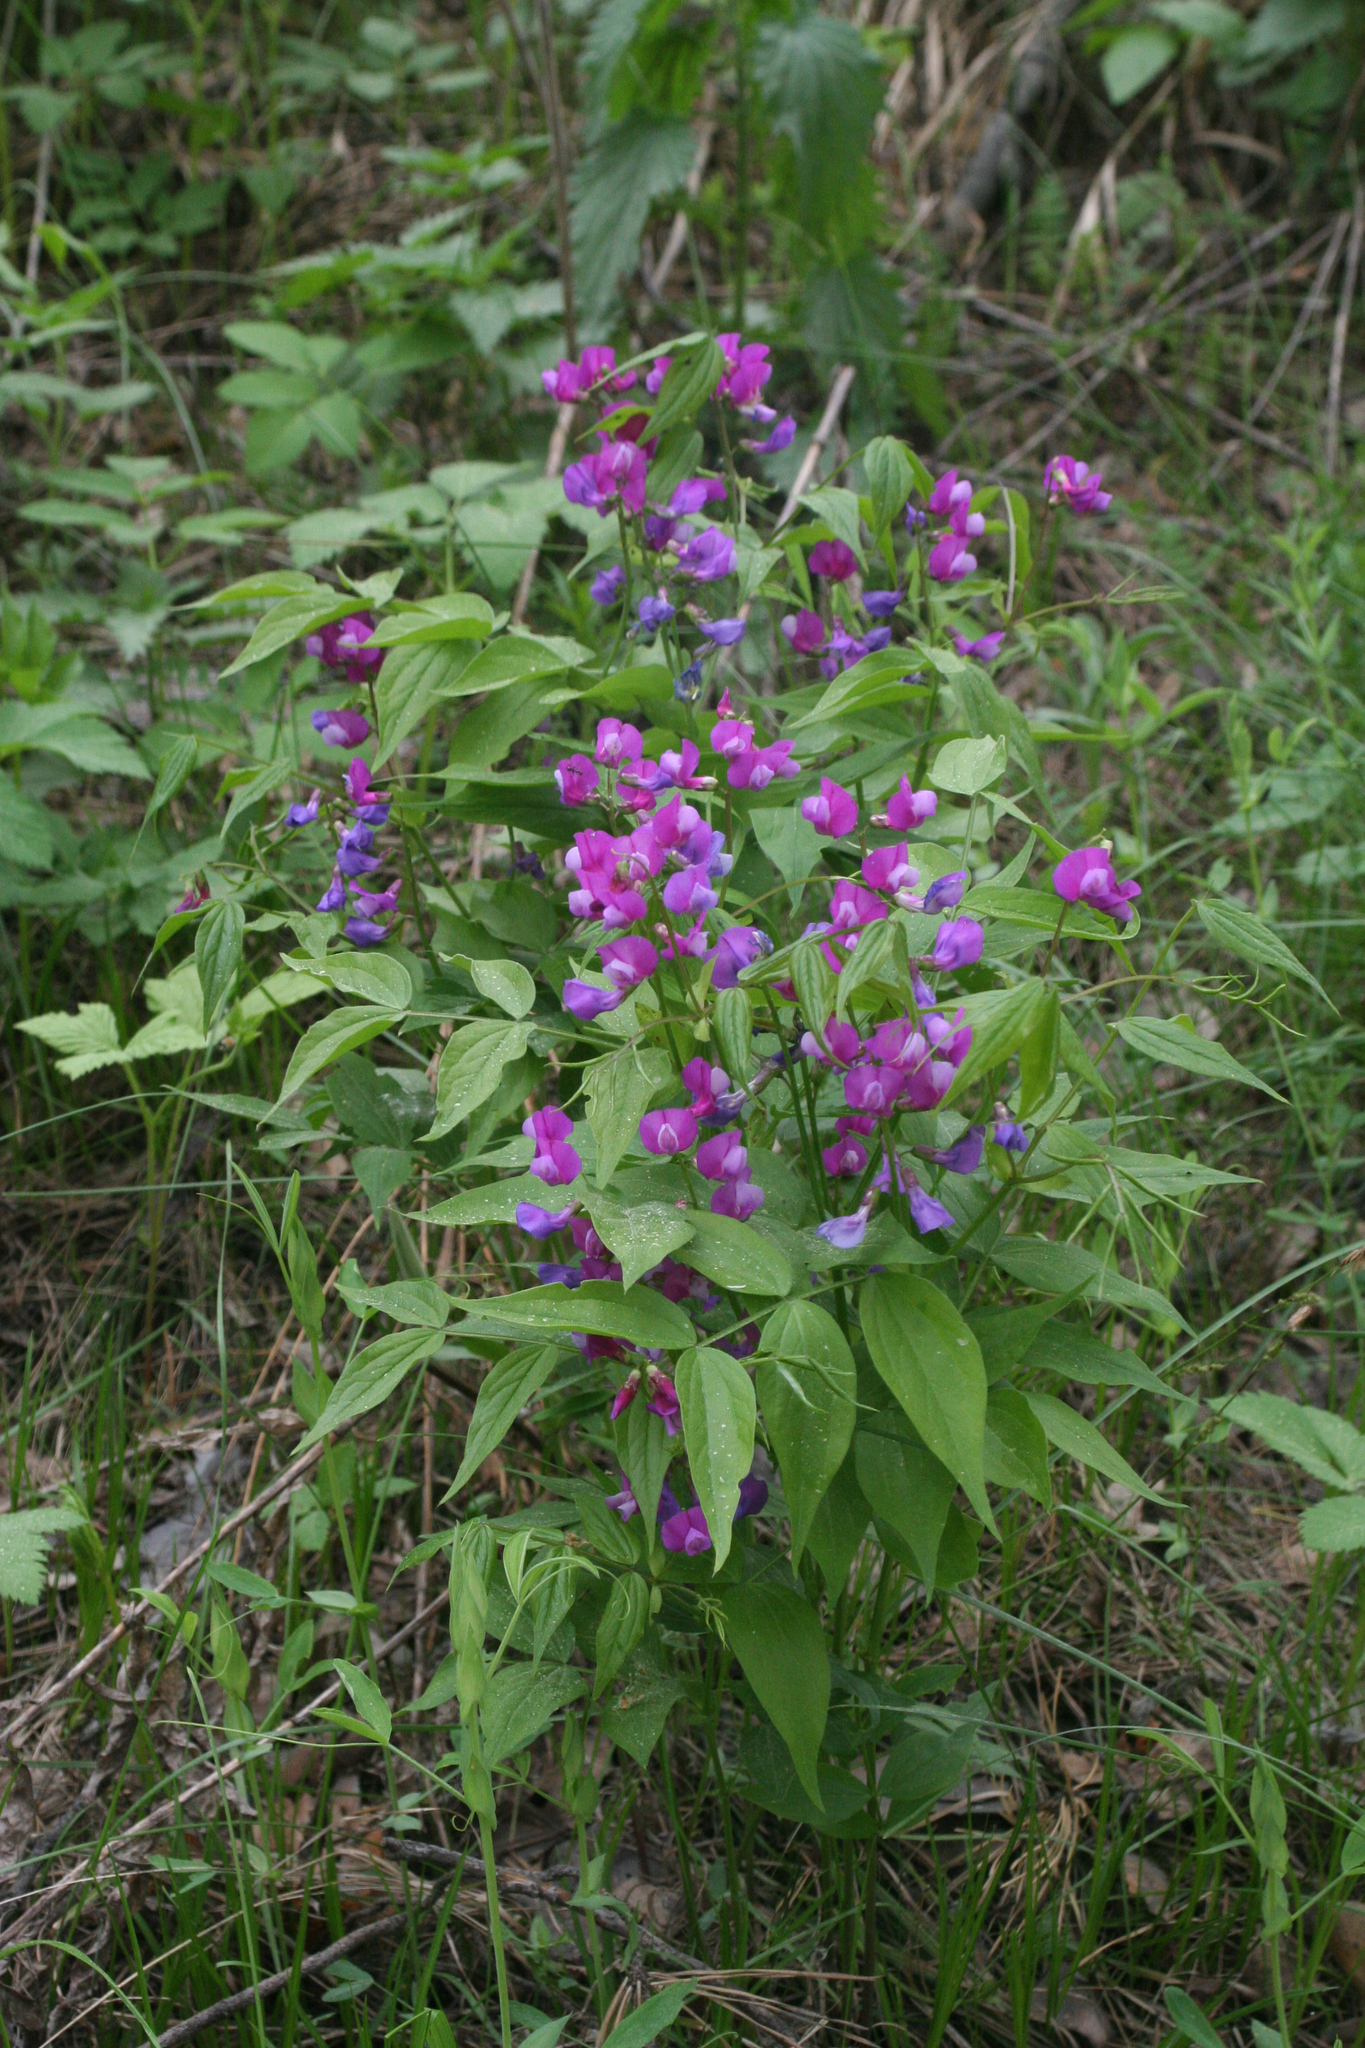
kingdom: Plantae
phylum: Tracheophyta
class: Magnoliopsida
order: Fabales
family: Fabaceae
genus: Lathyrus
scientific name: Lathyrus vernus
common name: Spring pea
